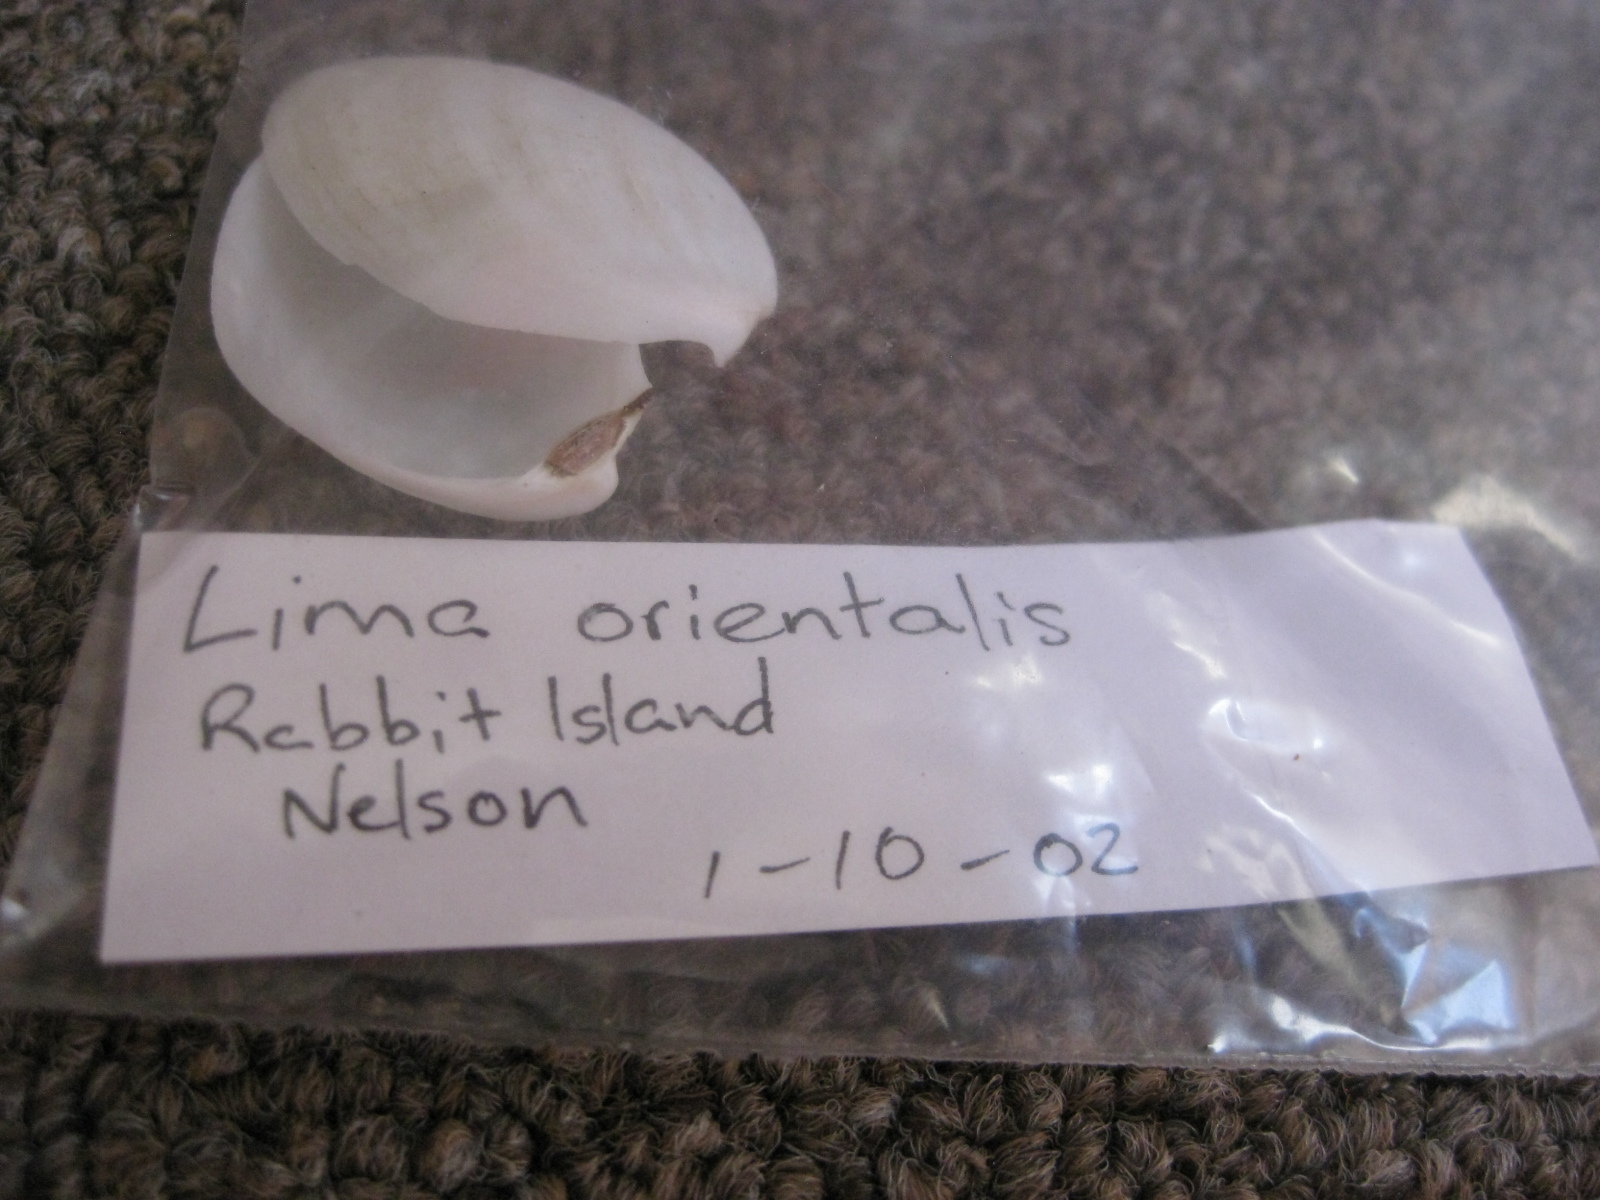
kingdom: Animalia
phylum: Mollusca
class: Bivalvia
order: Limida
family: Limidae
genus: Limaria
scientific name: Limaria orientalis
